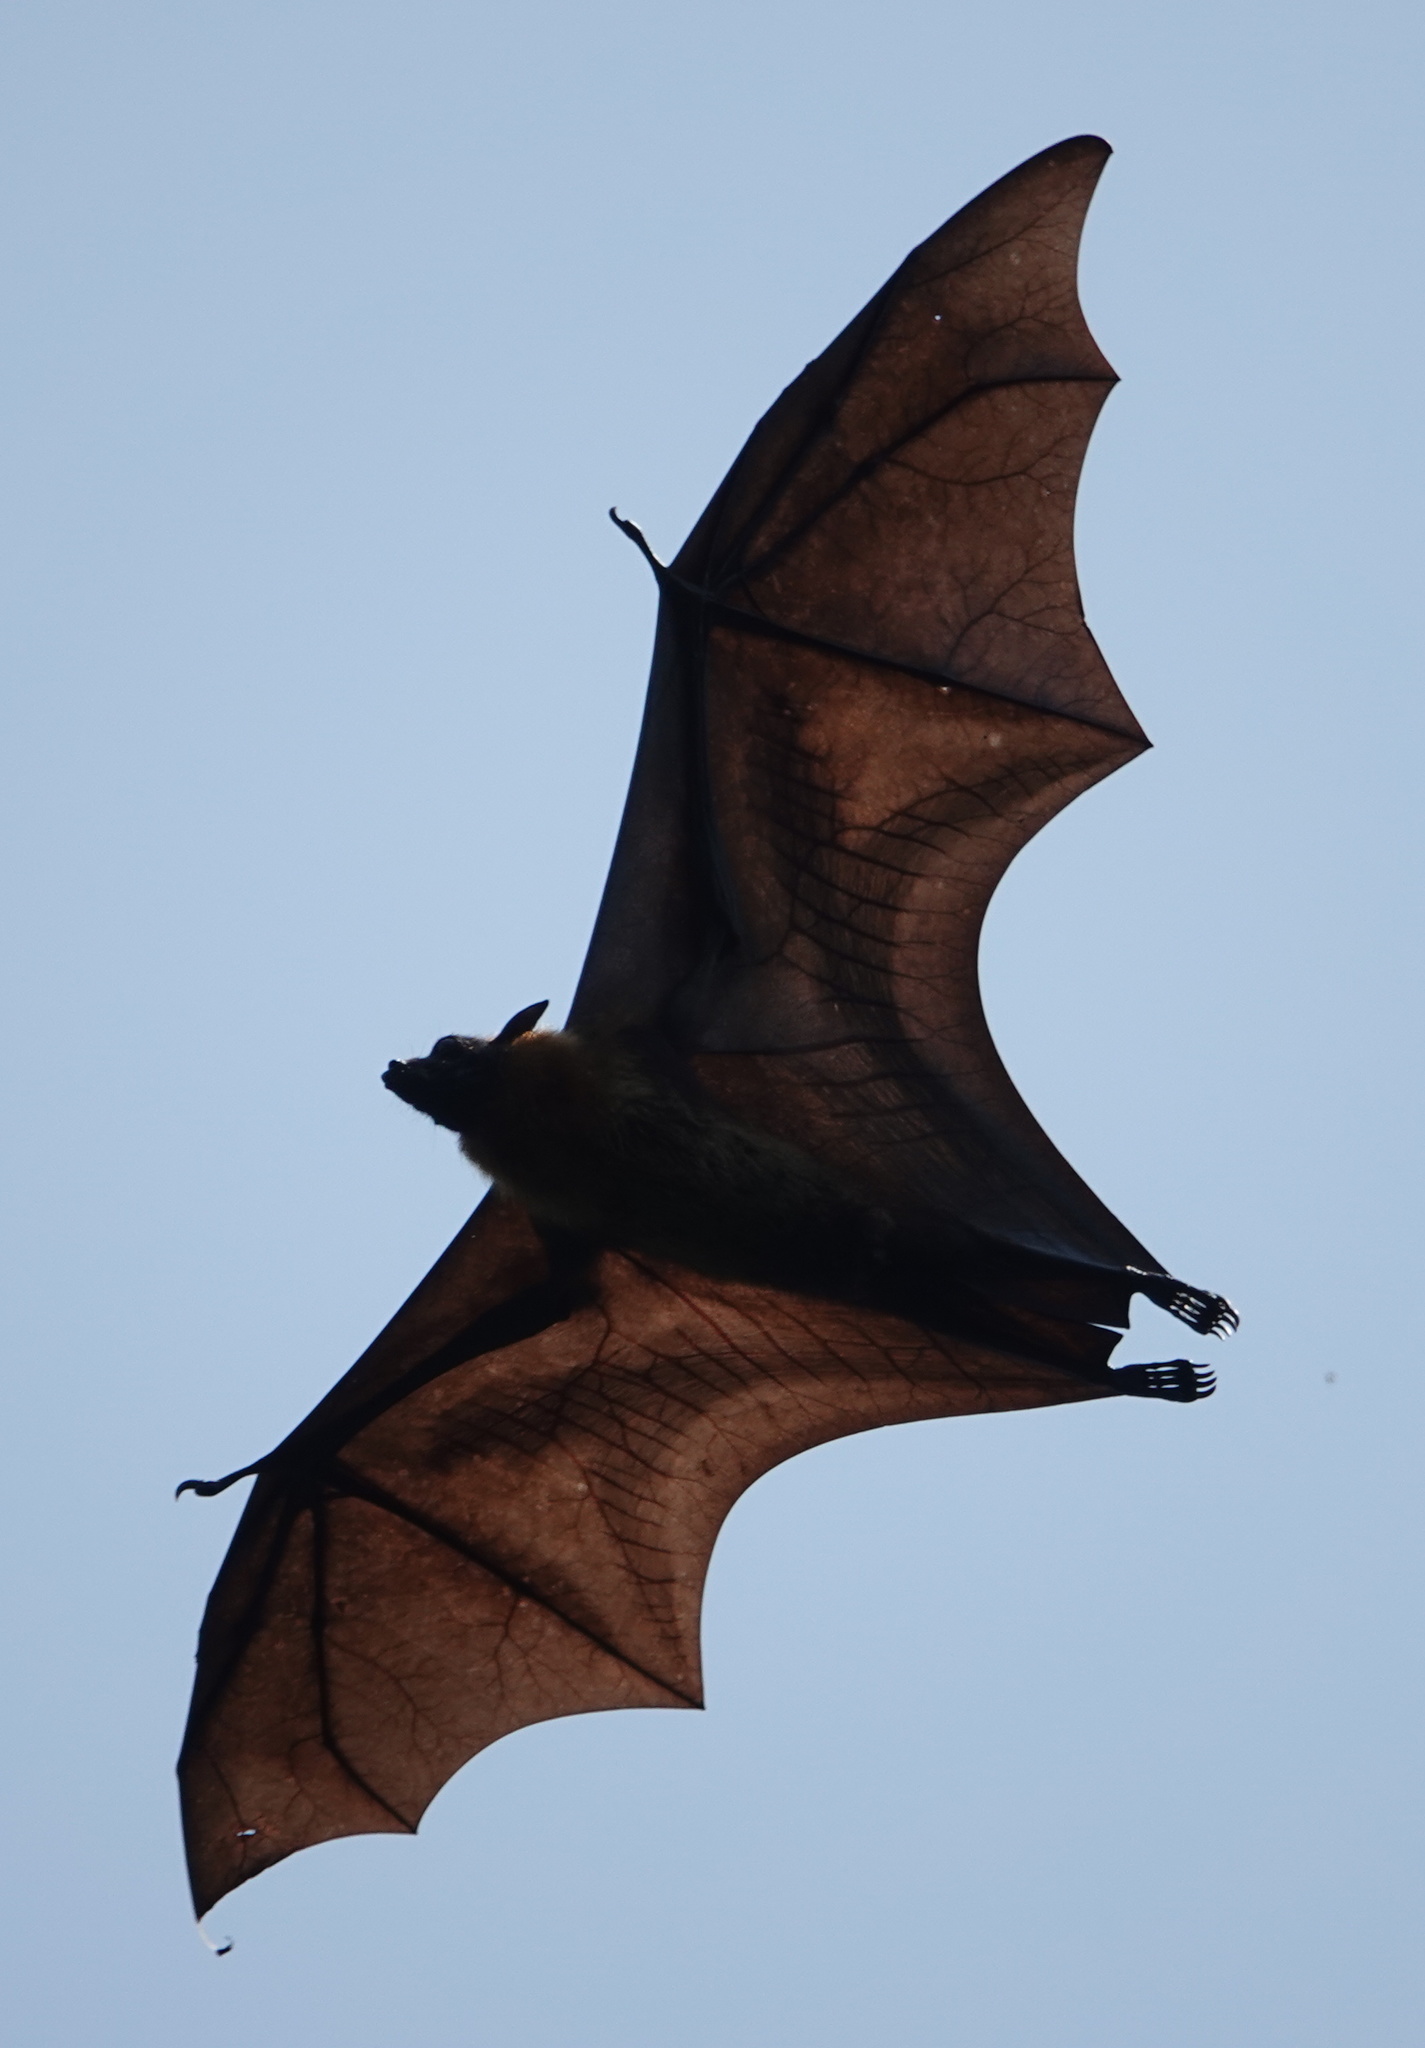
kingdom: Animalia
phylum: Chordata
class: Mammalia
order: Chiroptera
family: Pteropodidae
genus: Pteropus
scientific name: Pteropus vampyrus
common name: Large flying fox
